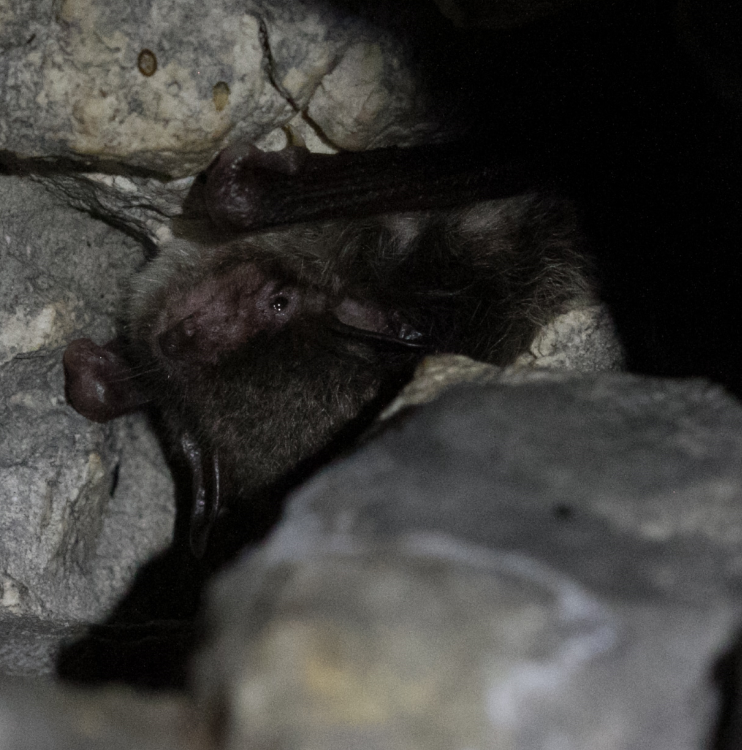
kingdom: Animalia
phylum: Chordata
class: Mammalia
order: Chiroptera
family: Vespertilionidae
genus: Myotis
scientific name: Myotis daubentonii
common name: Daubenton's myotis
